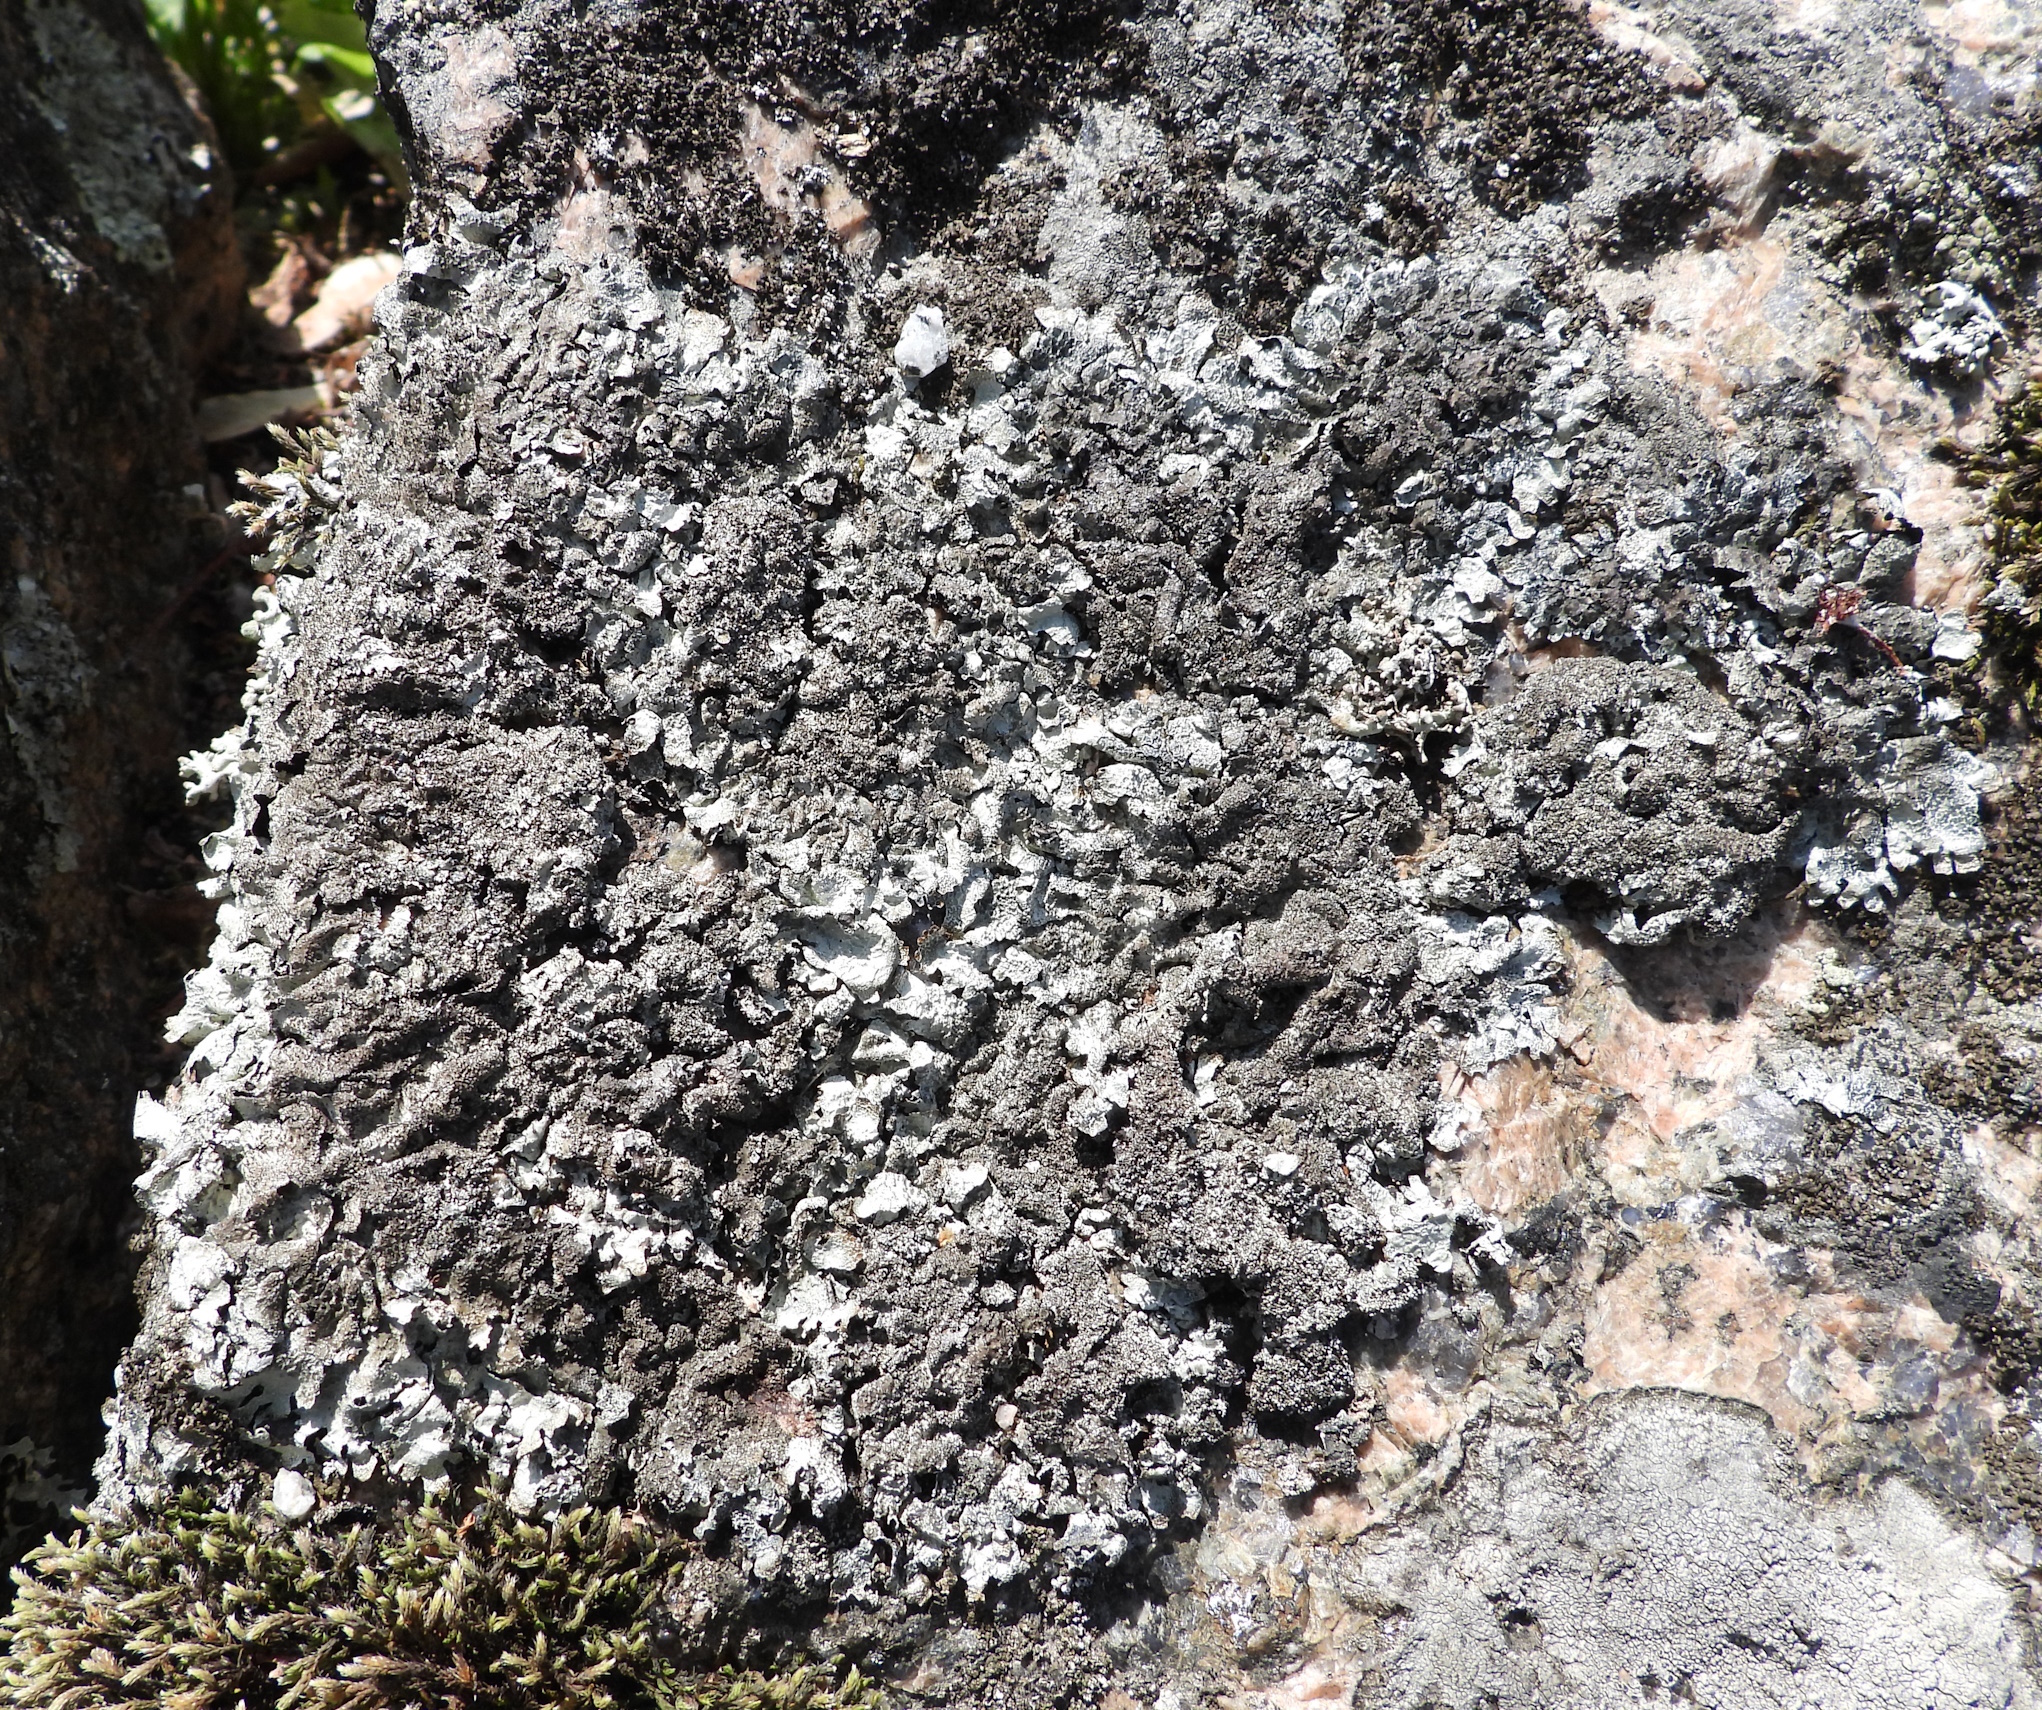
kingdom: Fungi
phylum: Ascomycota
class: Lecanoromycetes
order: Lecanorales
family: Parmeliaceae
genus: Parmelia
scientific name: Parmelia saxatilis
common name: Salted shield lichen
